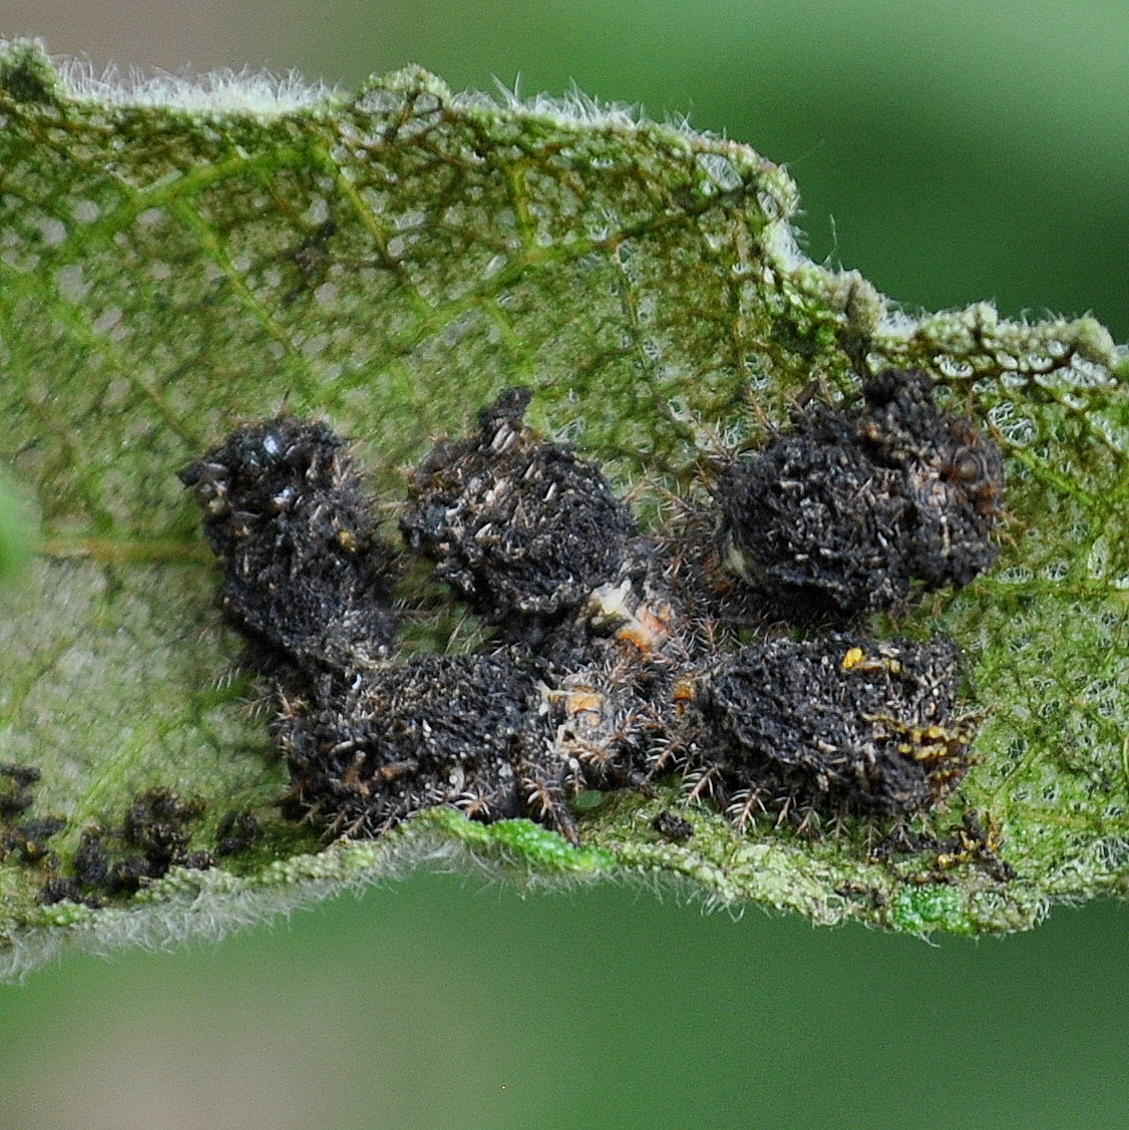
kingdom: Animalia
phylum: Arthropoda
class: Insecta
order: Coleoptera
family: Chrysomelidae
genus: Chlamydocassis
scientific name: Chlamydocassis laticollis
